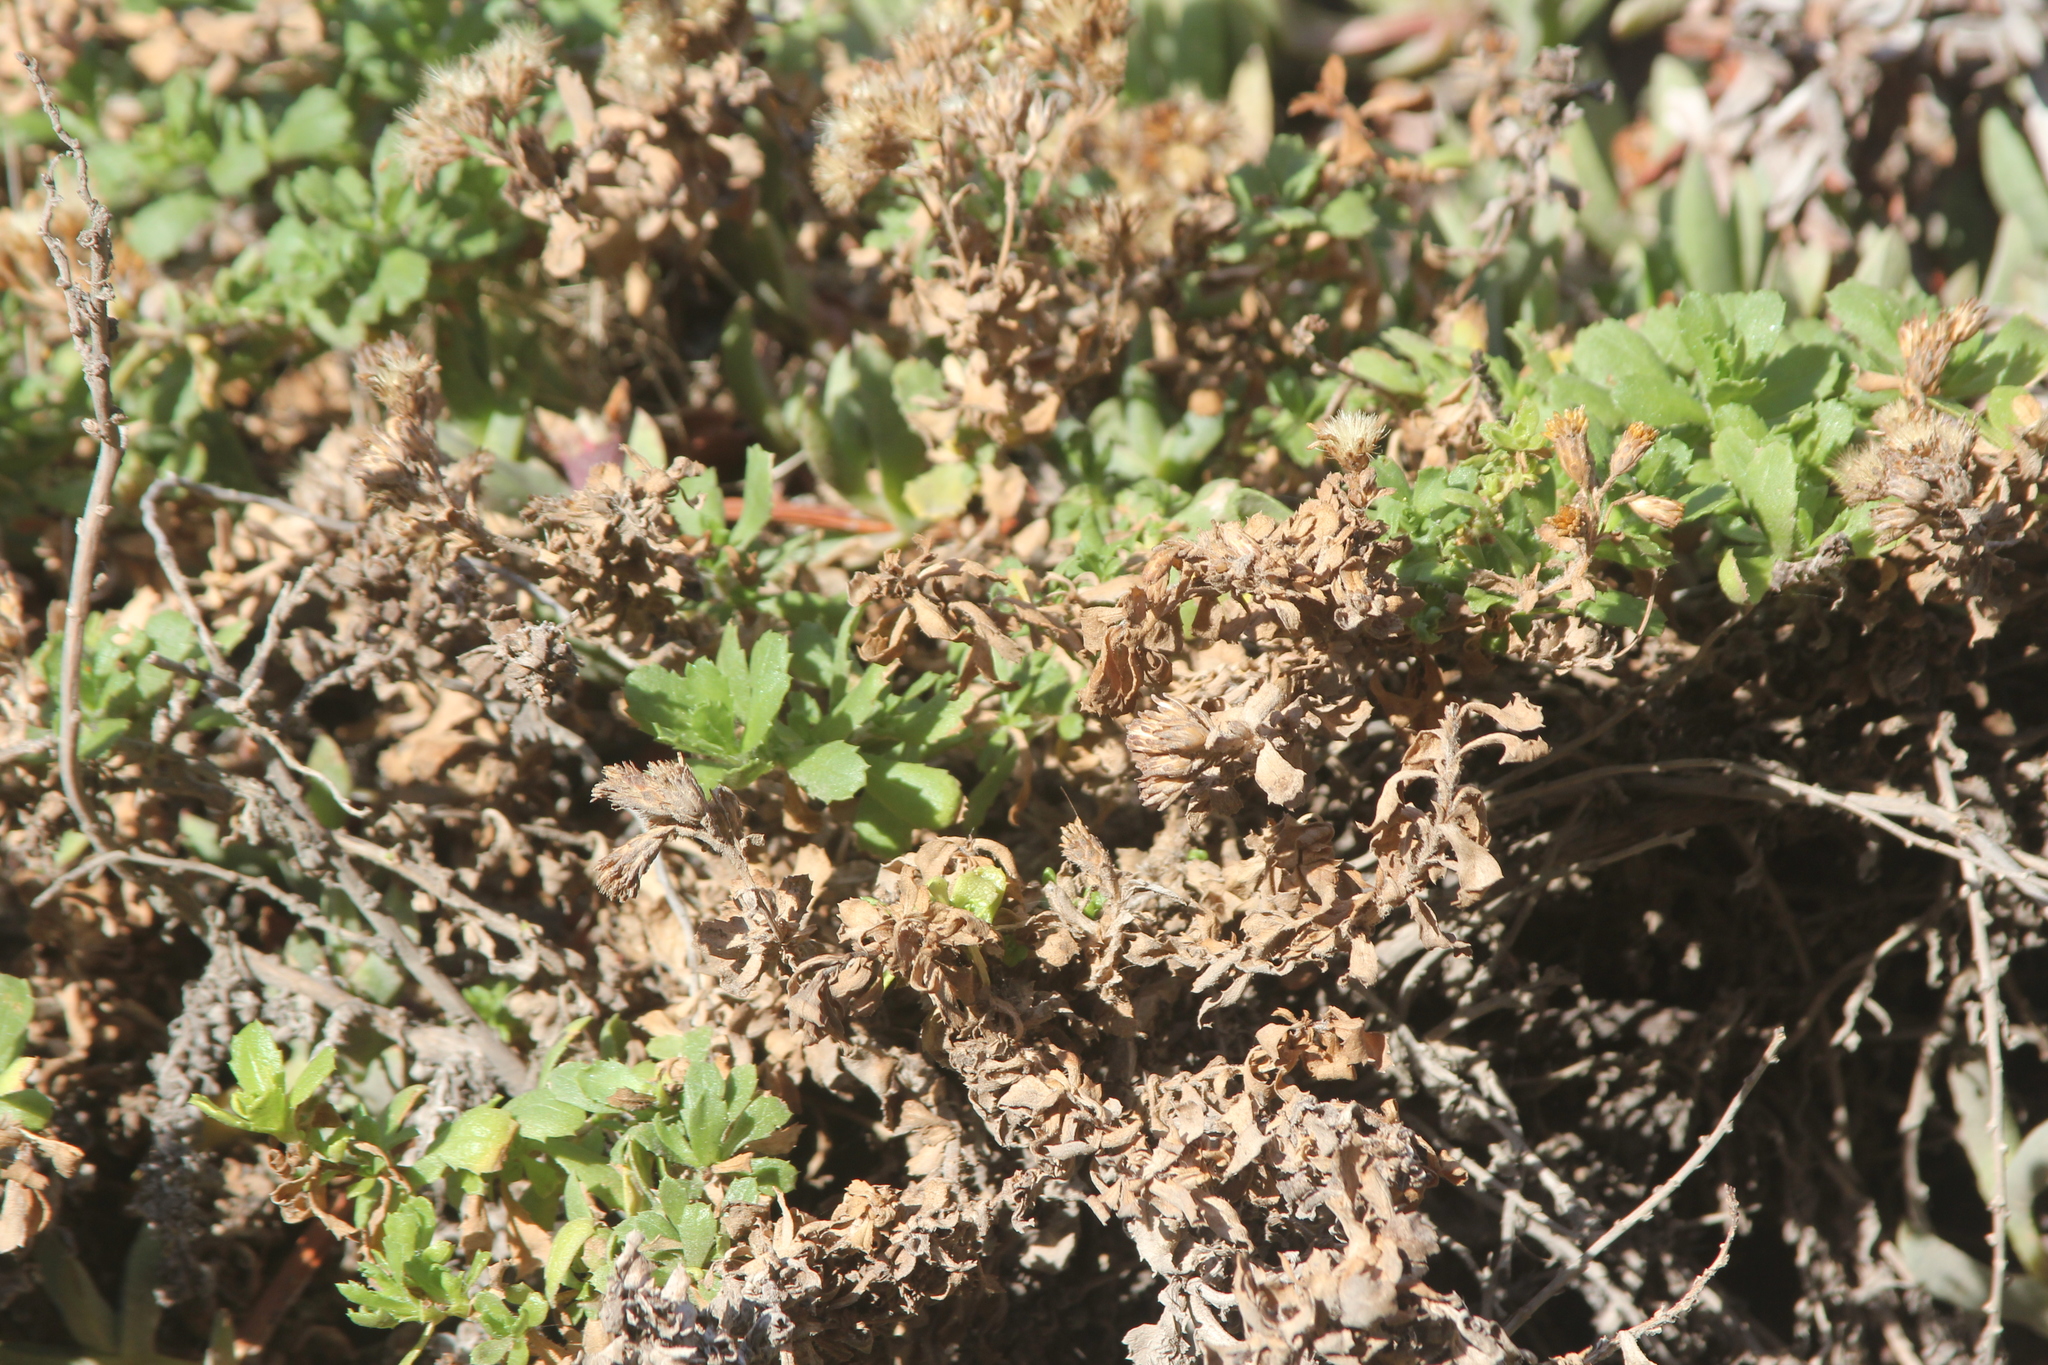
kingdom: Plantae
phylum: Tracheophyta
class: Magnoliopsida
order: Asterales
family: Asteraceae
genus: Isocoma
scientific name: Isocoma menziesii
